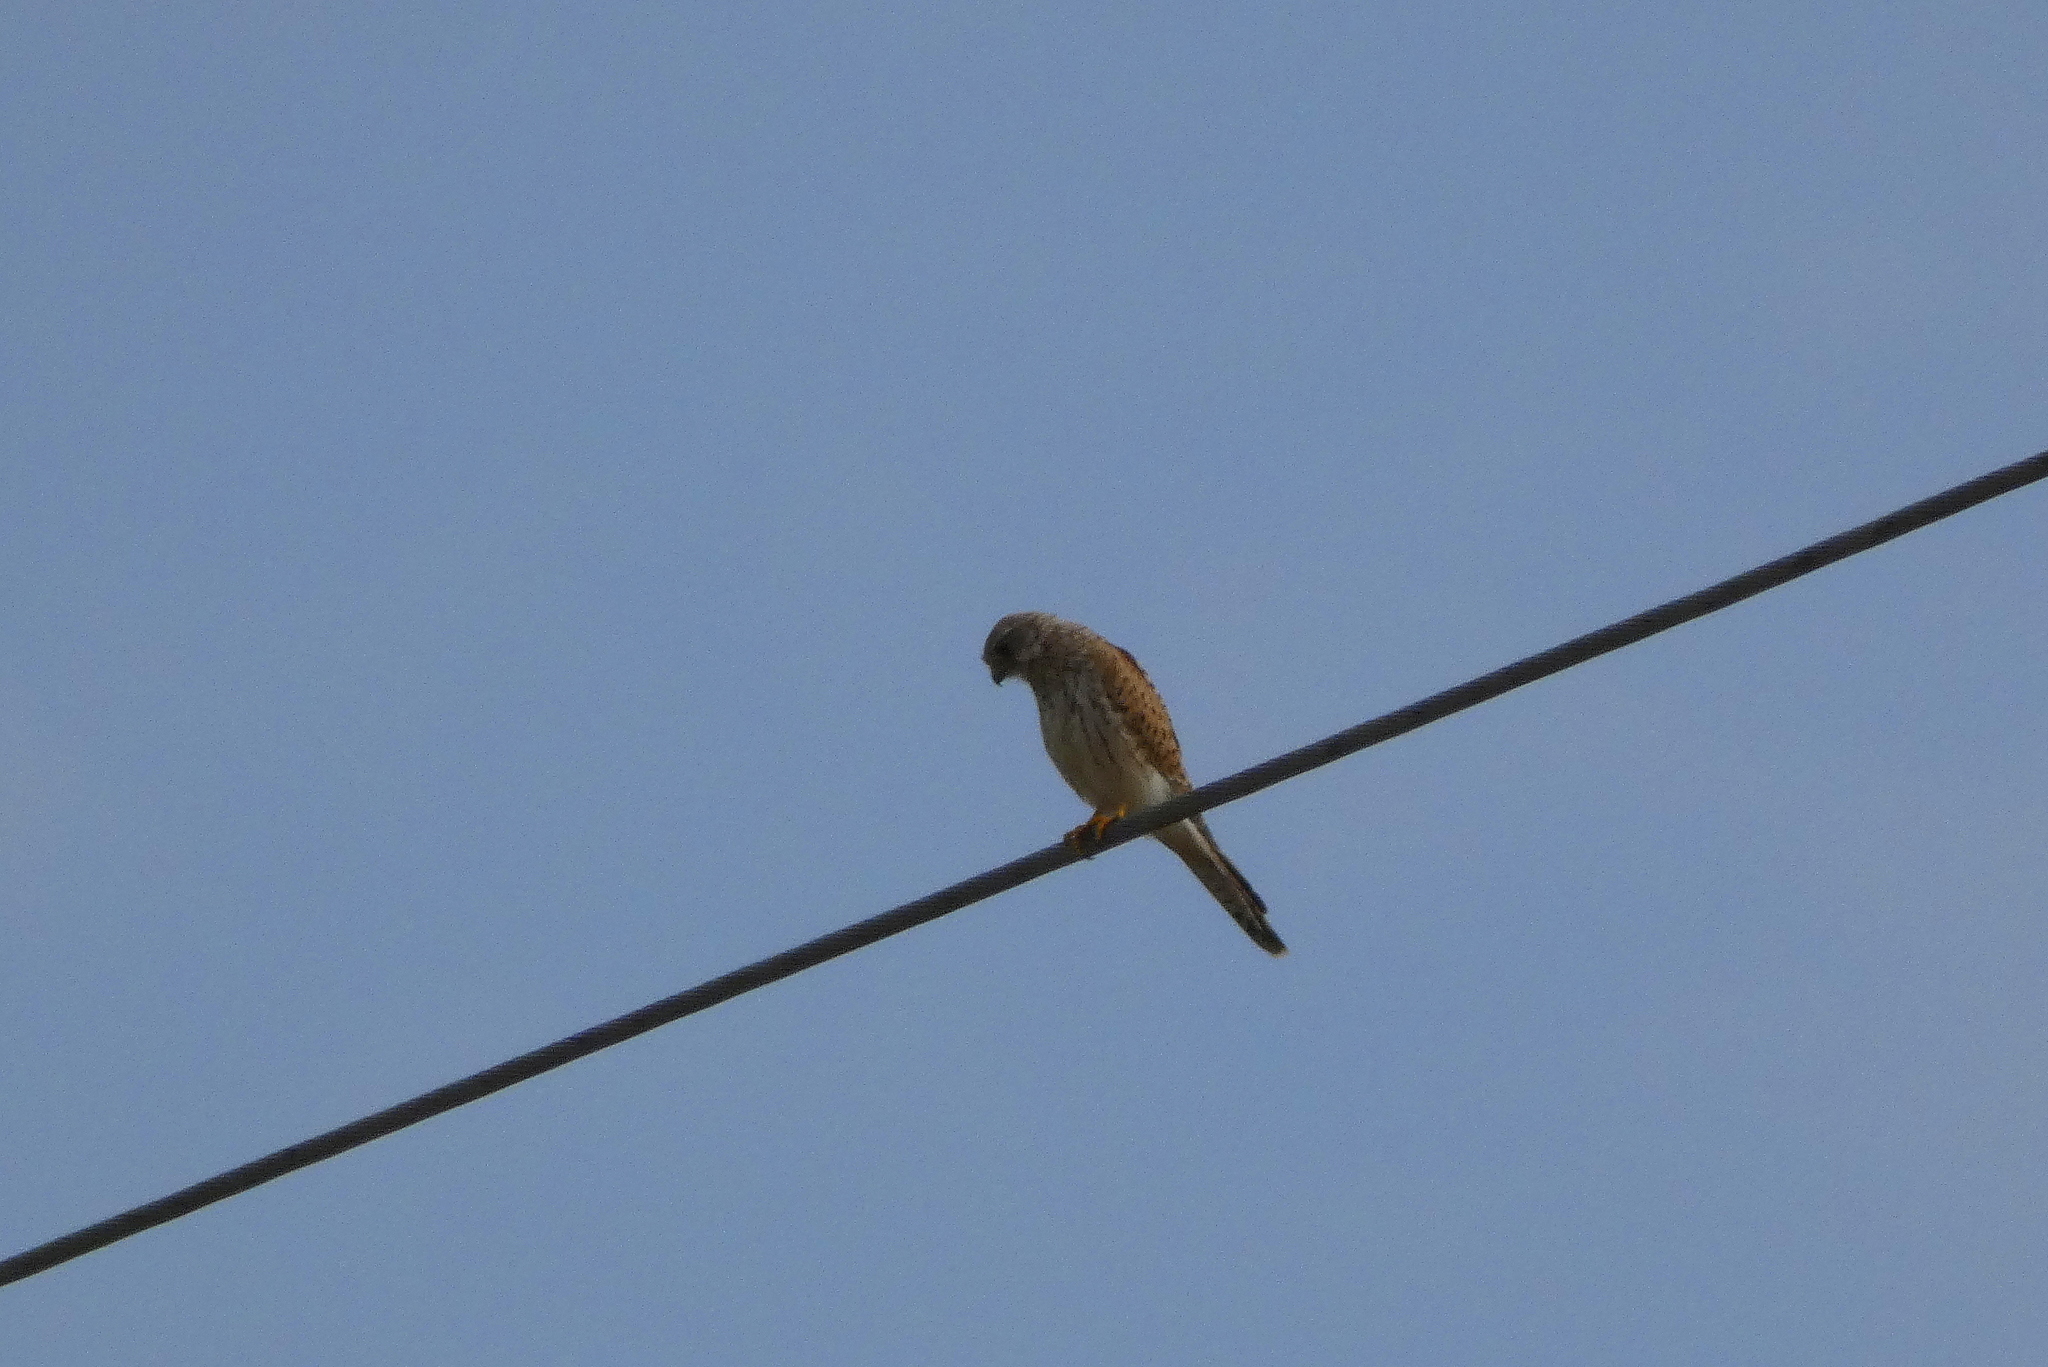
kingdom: Animalia
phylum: Chordata
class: Aves
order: Falconiformes
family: Falconidae
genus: Falco
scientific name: Falco tinnunculus
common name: Common kestrel
